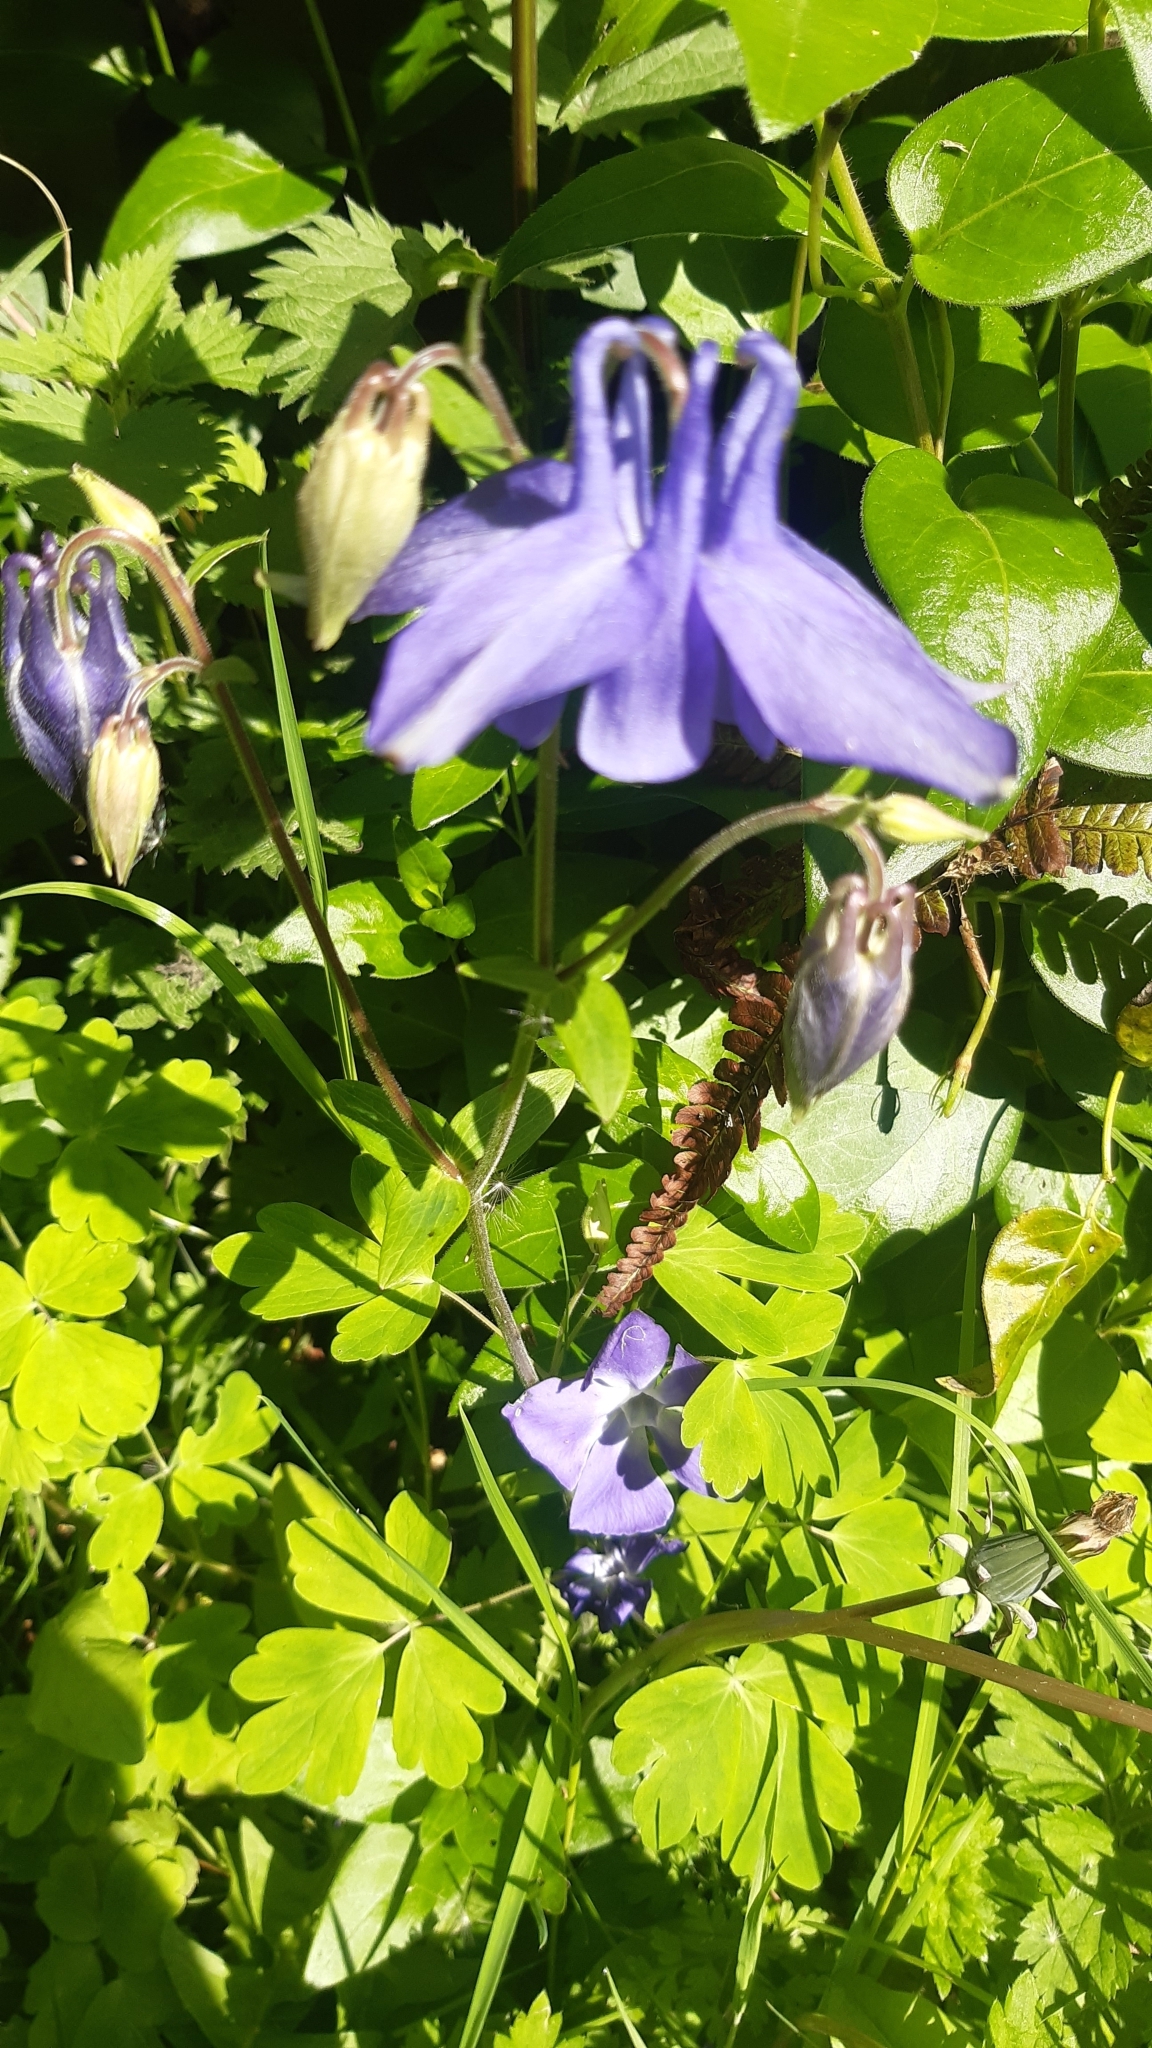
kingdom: Plantae
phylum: Tracheophyta
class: Magnoliopsida
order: Ranunculales
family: Ranunculaceae
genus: Aquilegia
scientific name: Aquilegia vulgaris
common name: Columbine
